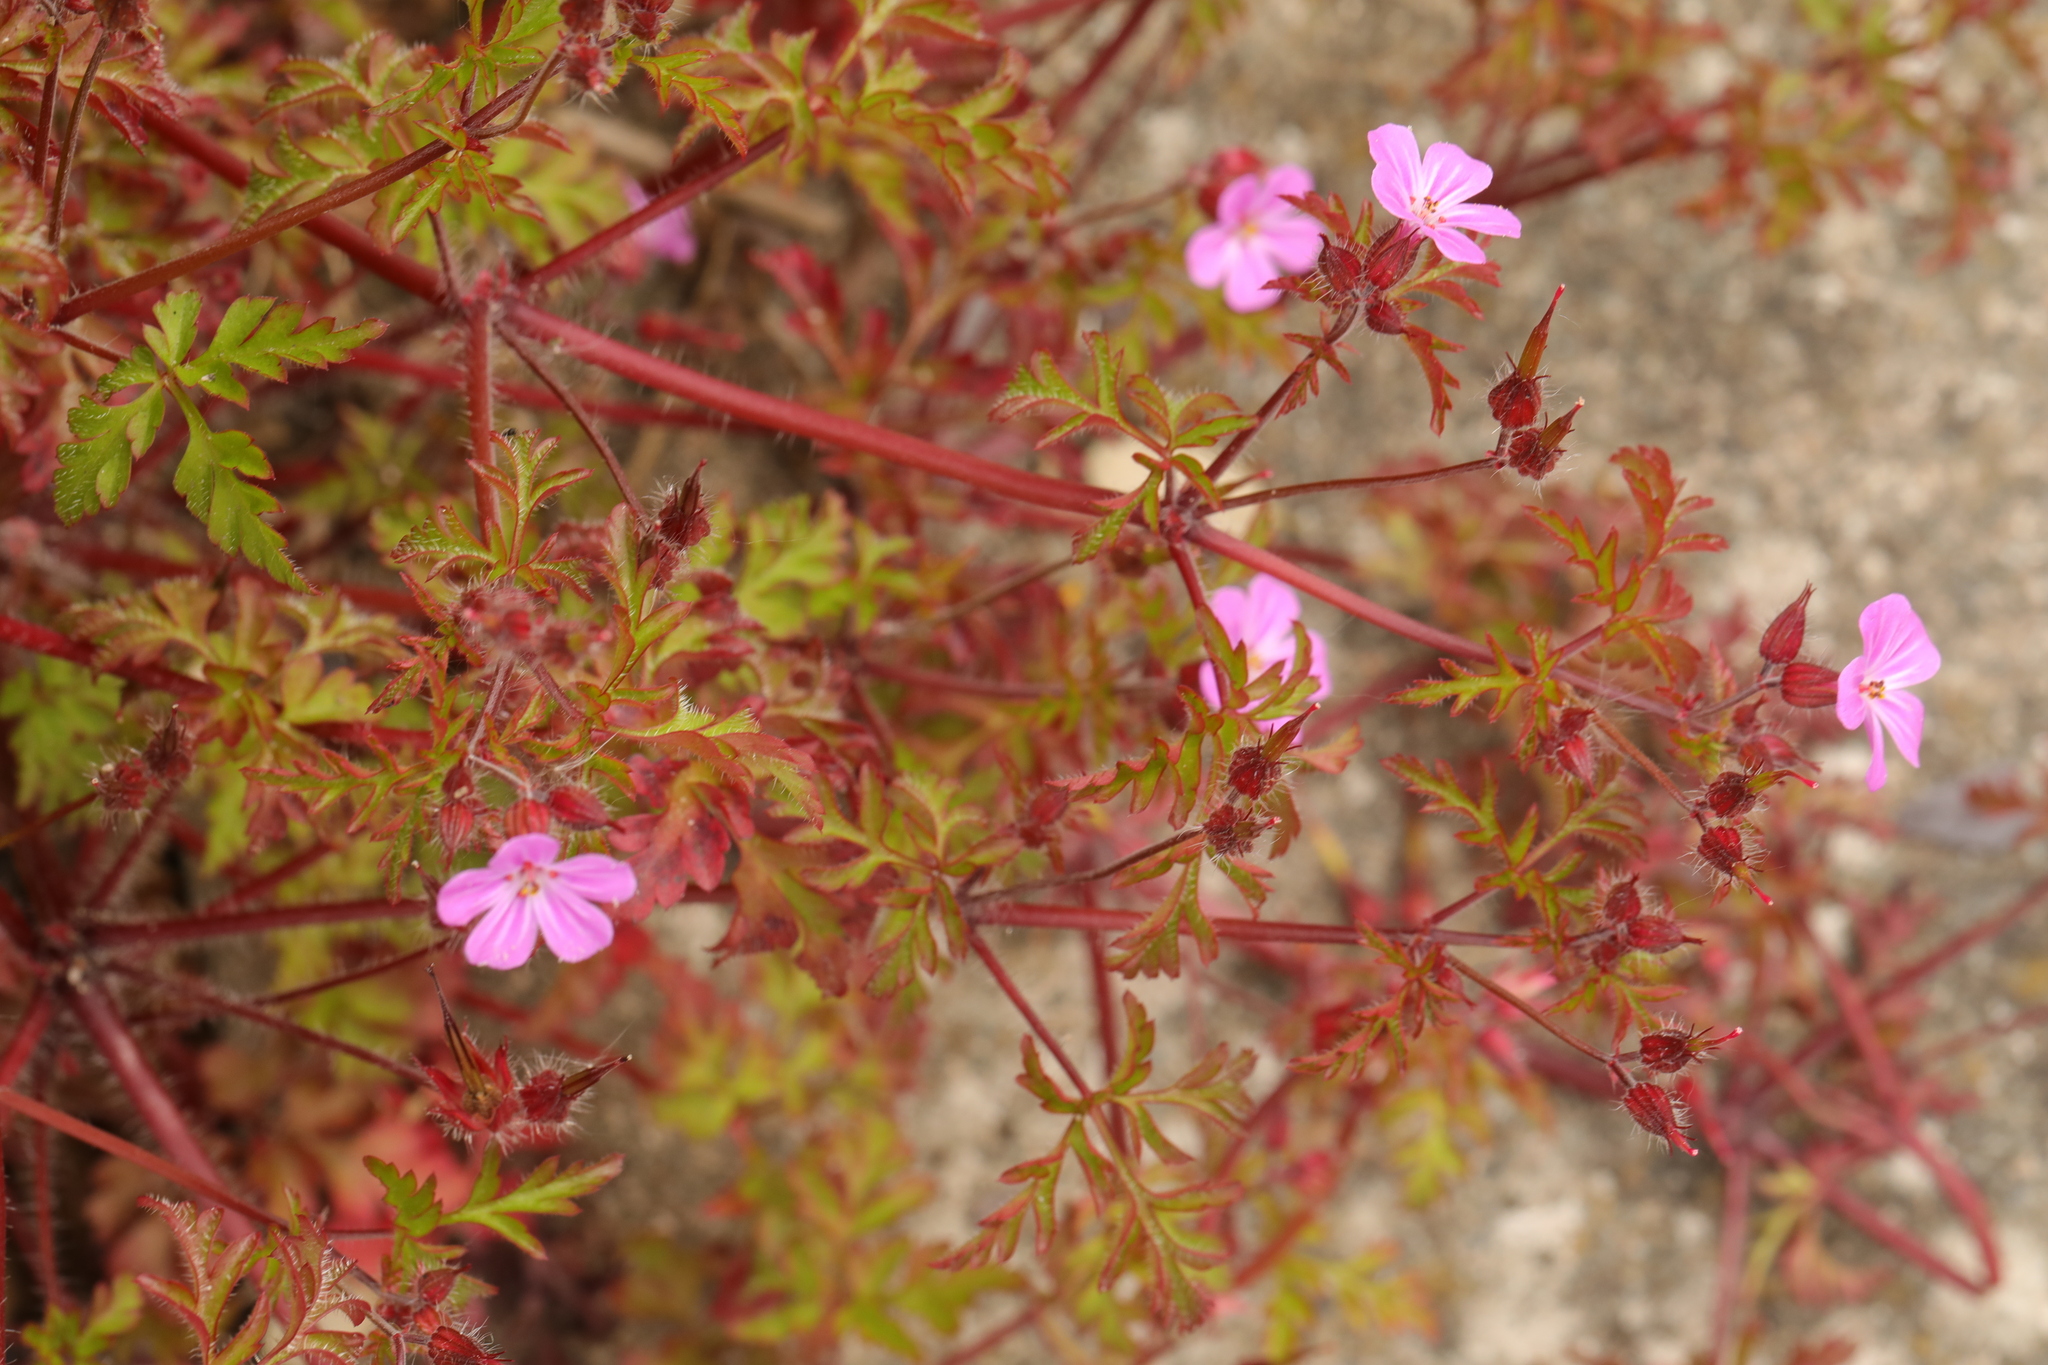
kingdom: Plantae
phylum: Tracheophyta
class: Magnoliopsida
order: Geraniales
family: Geraniaceae
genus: Geranium
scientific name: Geranium robertianum
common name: Herb-robert
